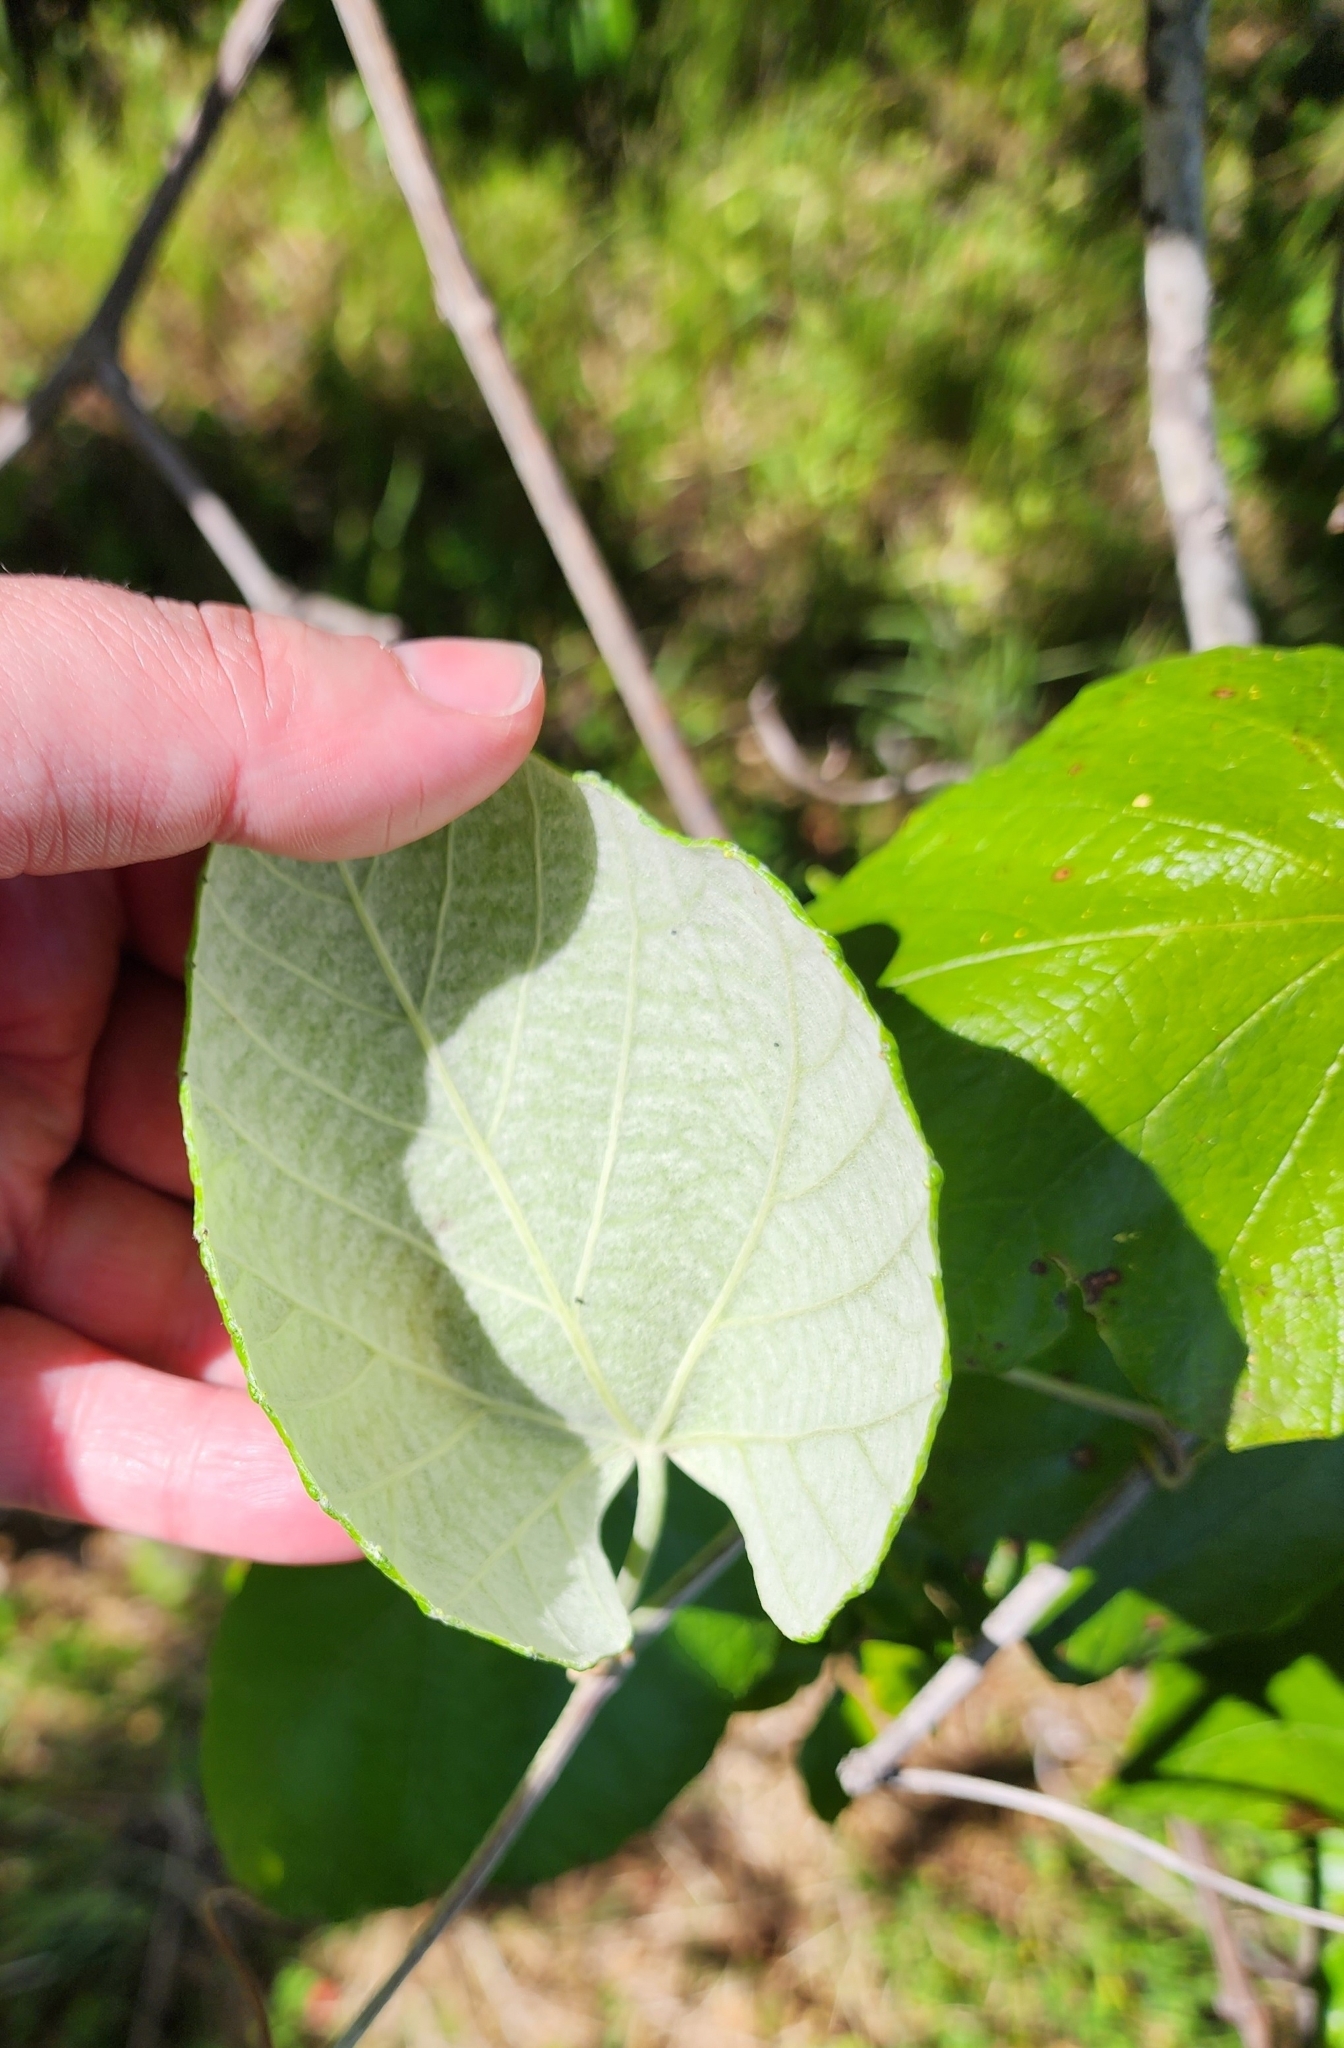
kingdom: Plantae
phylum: Tracheophyta
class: Magnoliopsida
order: Vitales
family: Vitaceae
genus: Vitis
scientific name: Vitis mustangensis
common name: Mustang grape
